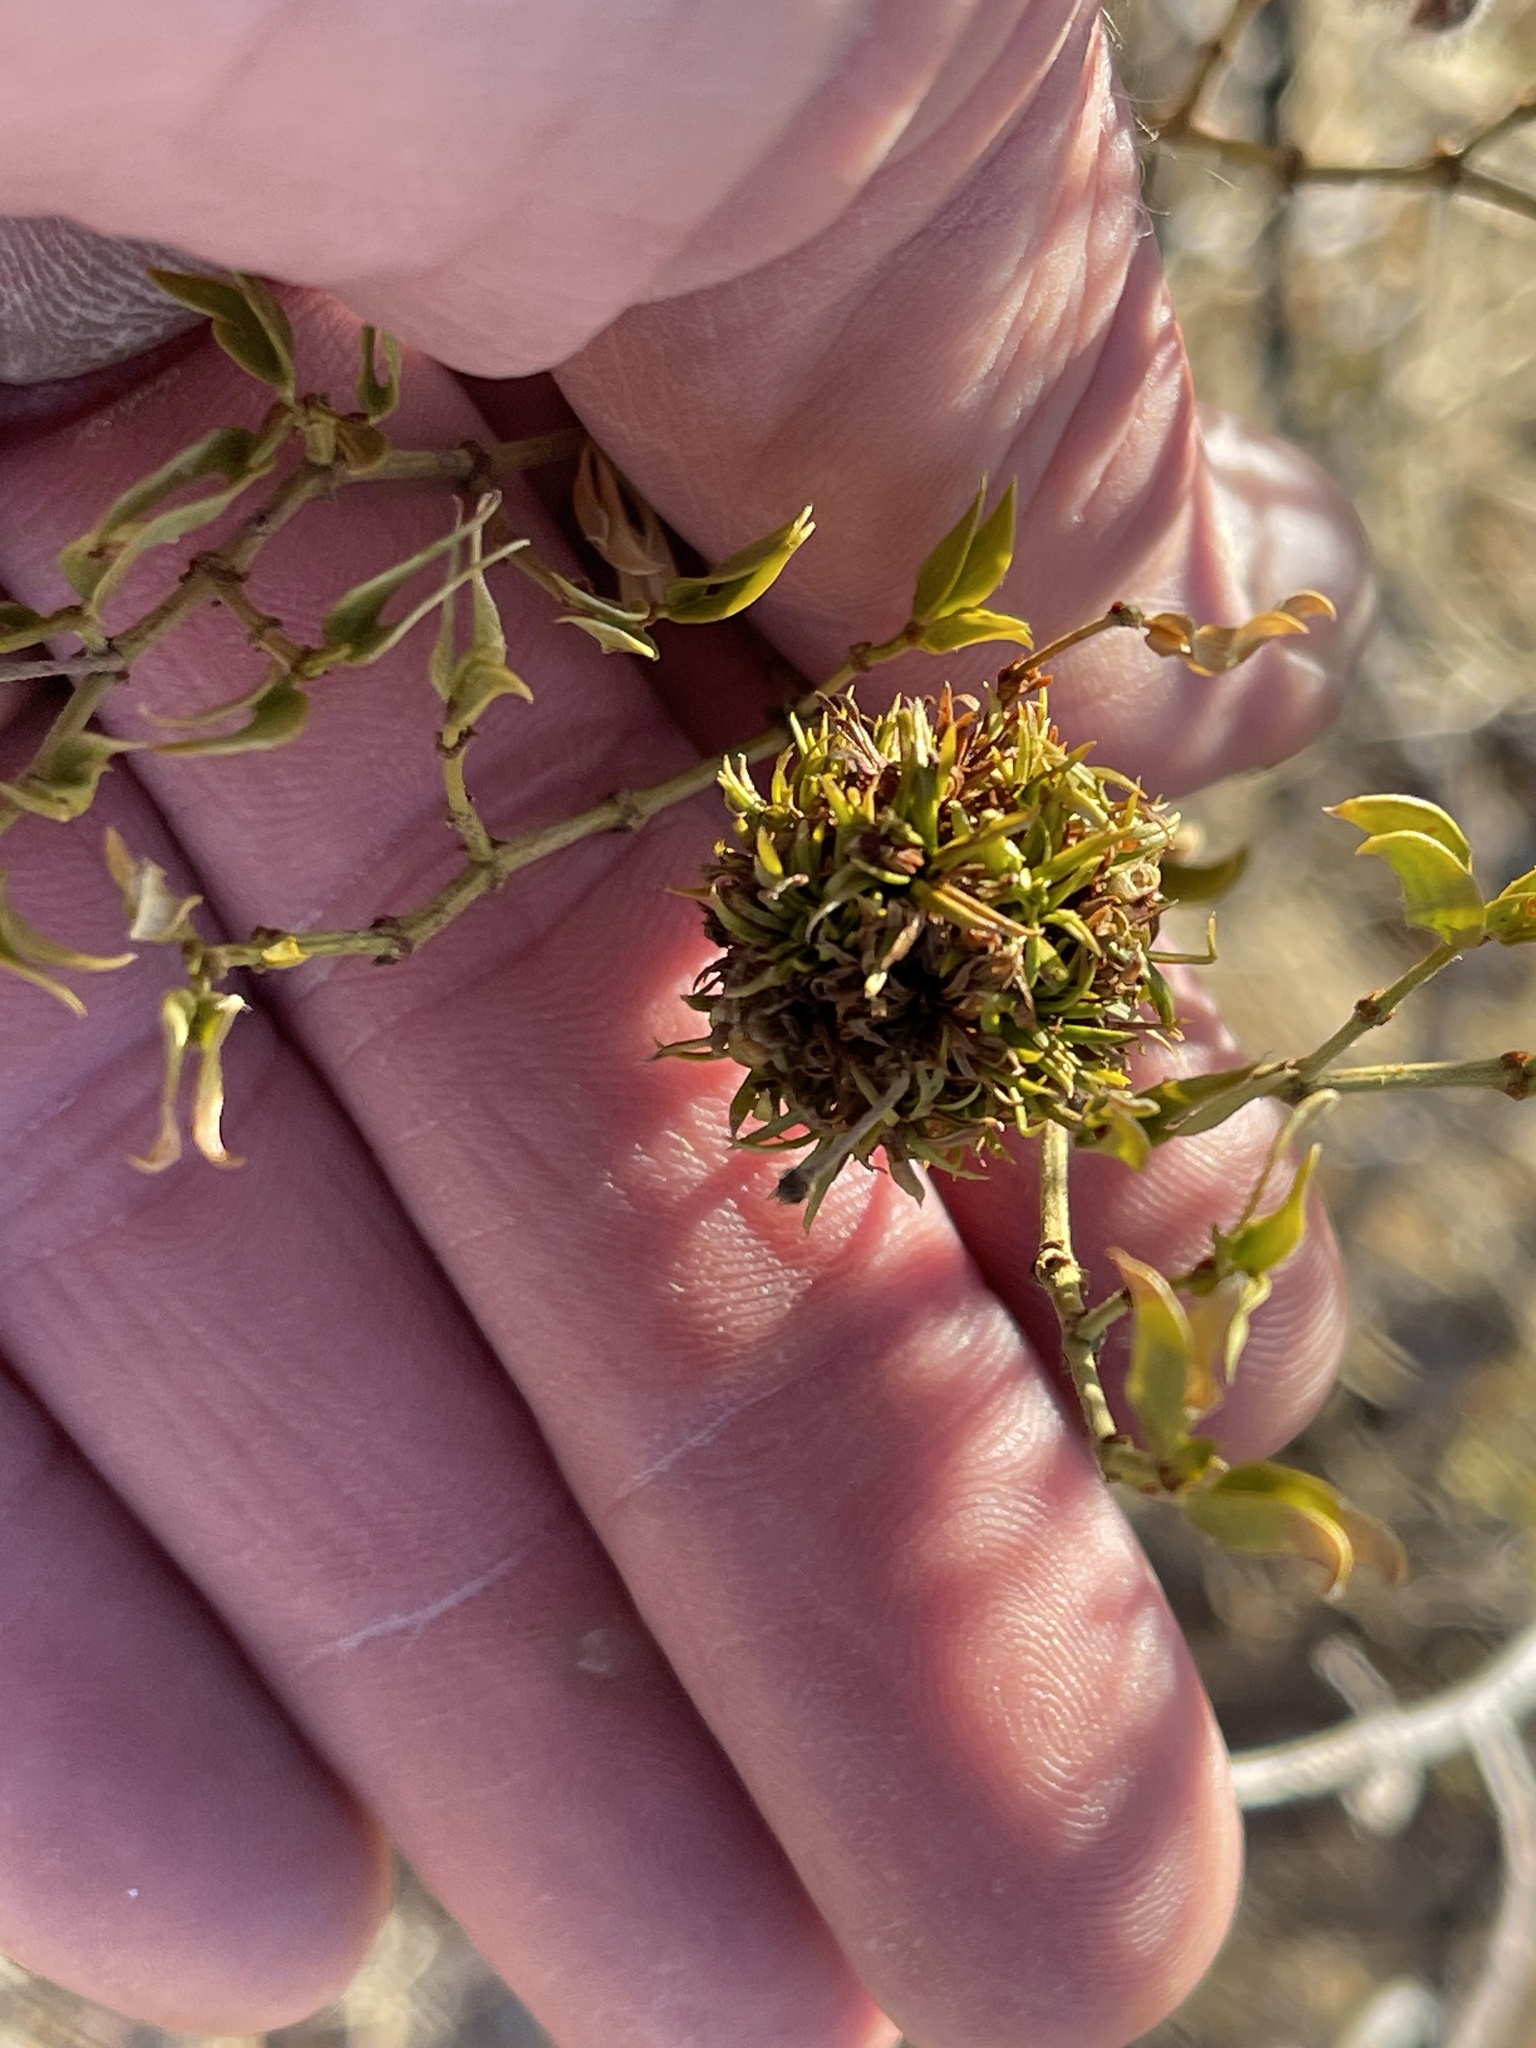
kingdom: Animalia
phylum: Arthropoda
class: Insecta
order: Diptera
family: Cecidomyiidae
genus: Asphondylia
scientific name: Asphondylia auripila
